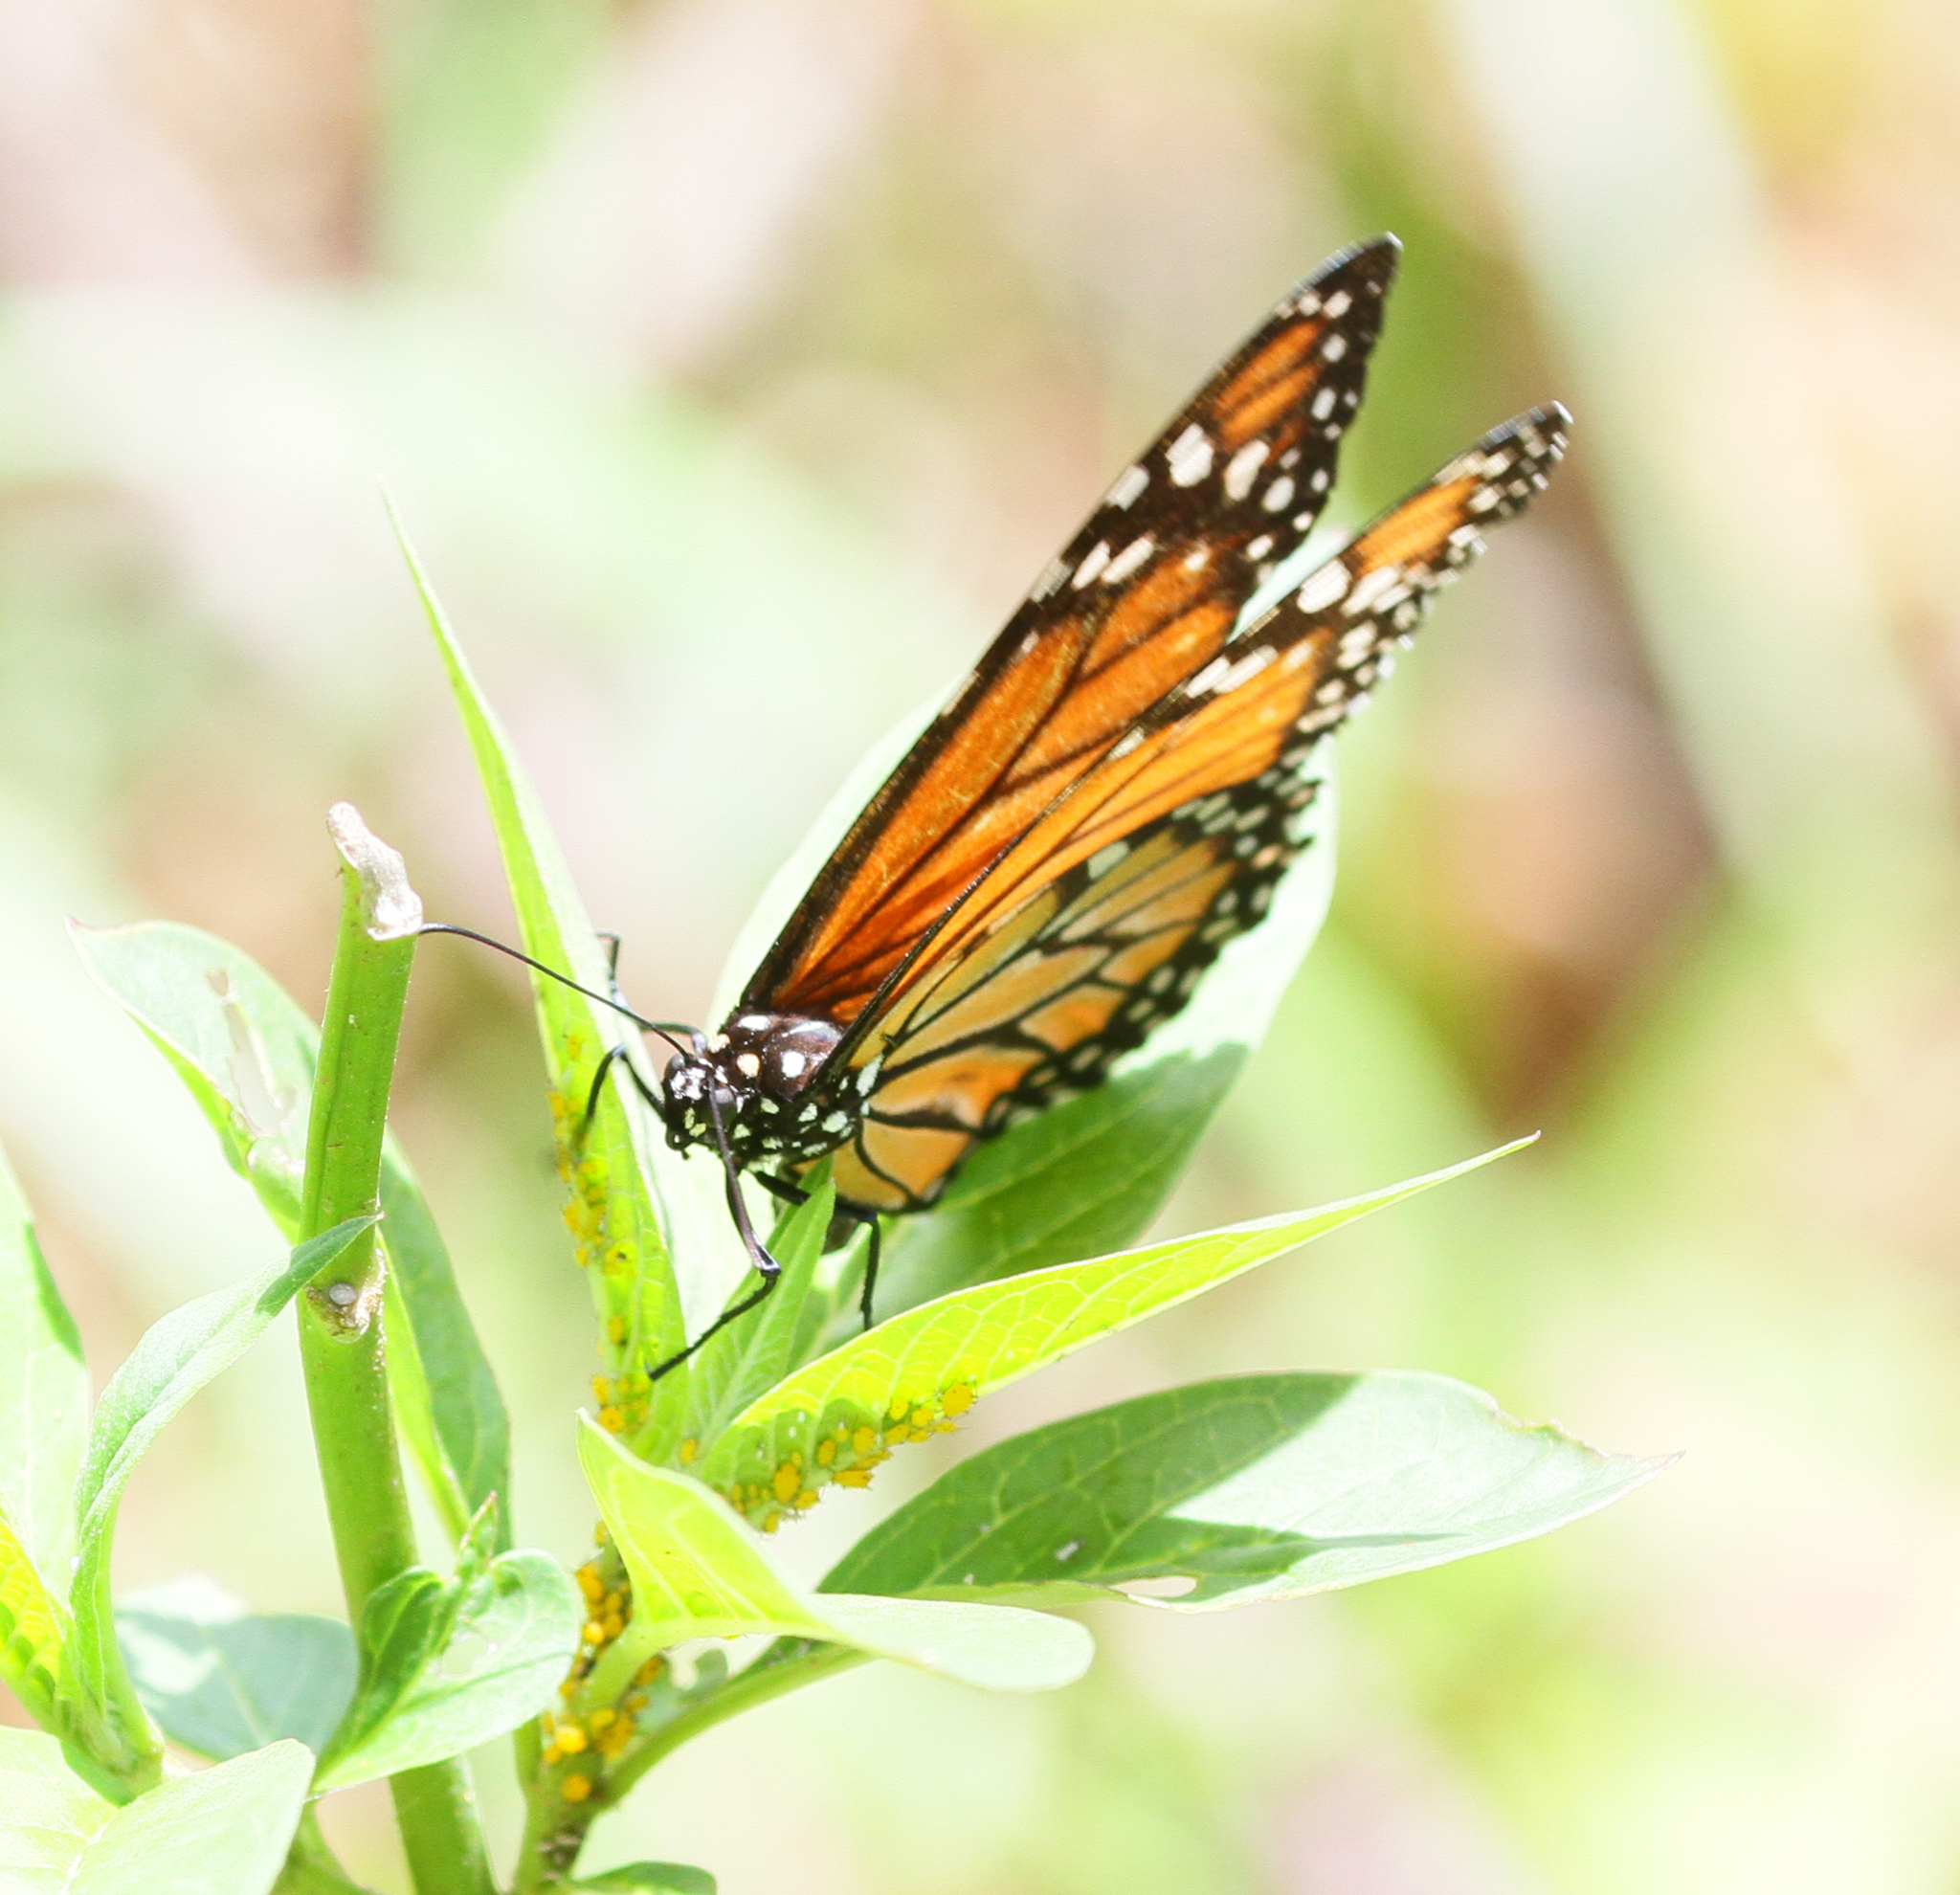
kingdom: Animalia
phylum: Arthropoda
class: Insecta
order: Lepidoptera
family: Nymphalidae
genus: Danaus
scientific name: Danaus erippus
